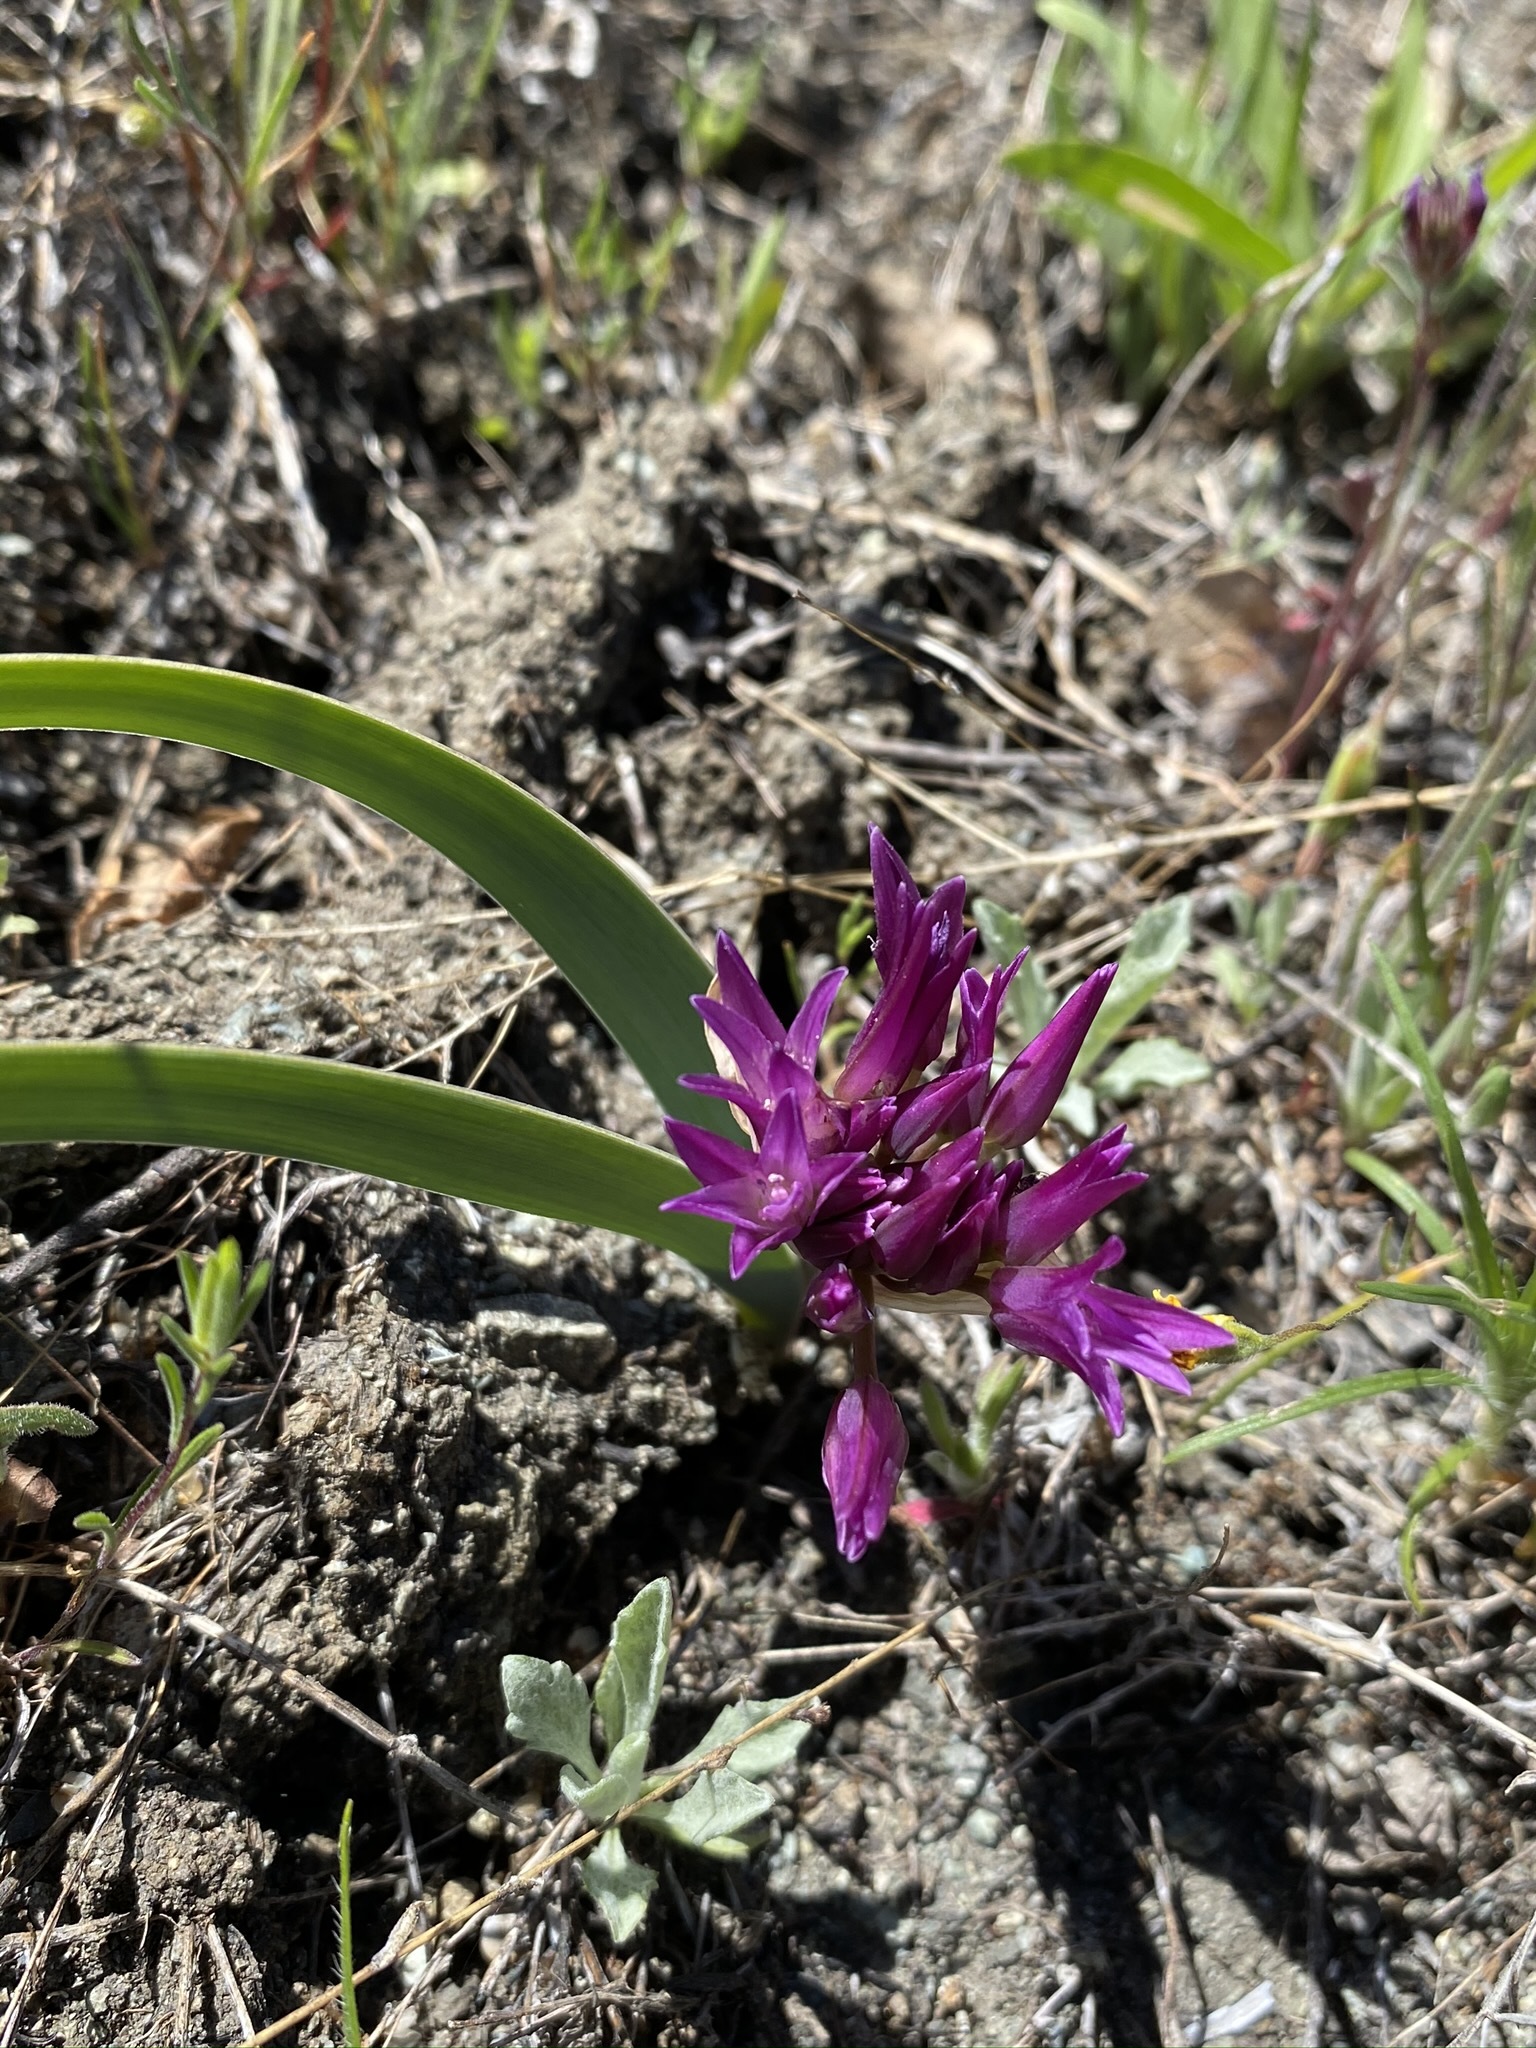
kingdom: Plantae
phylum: Tracheophyta
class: Liliopsida
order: Asparagales
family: Amaryllidaceae
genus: Allium
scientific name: Allium falcifolium
